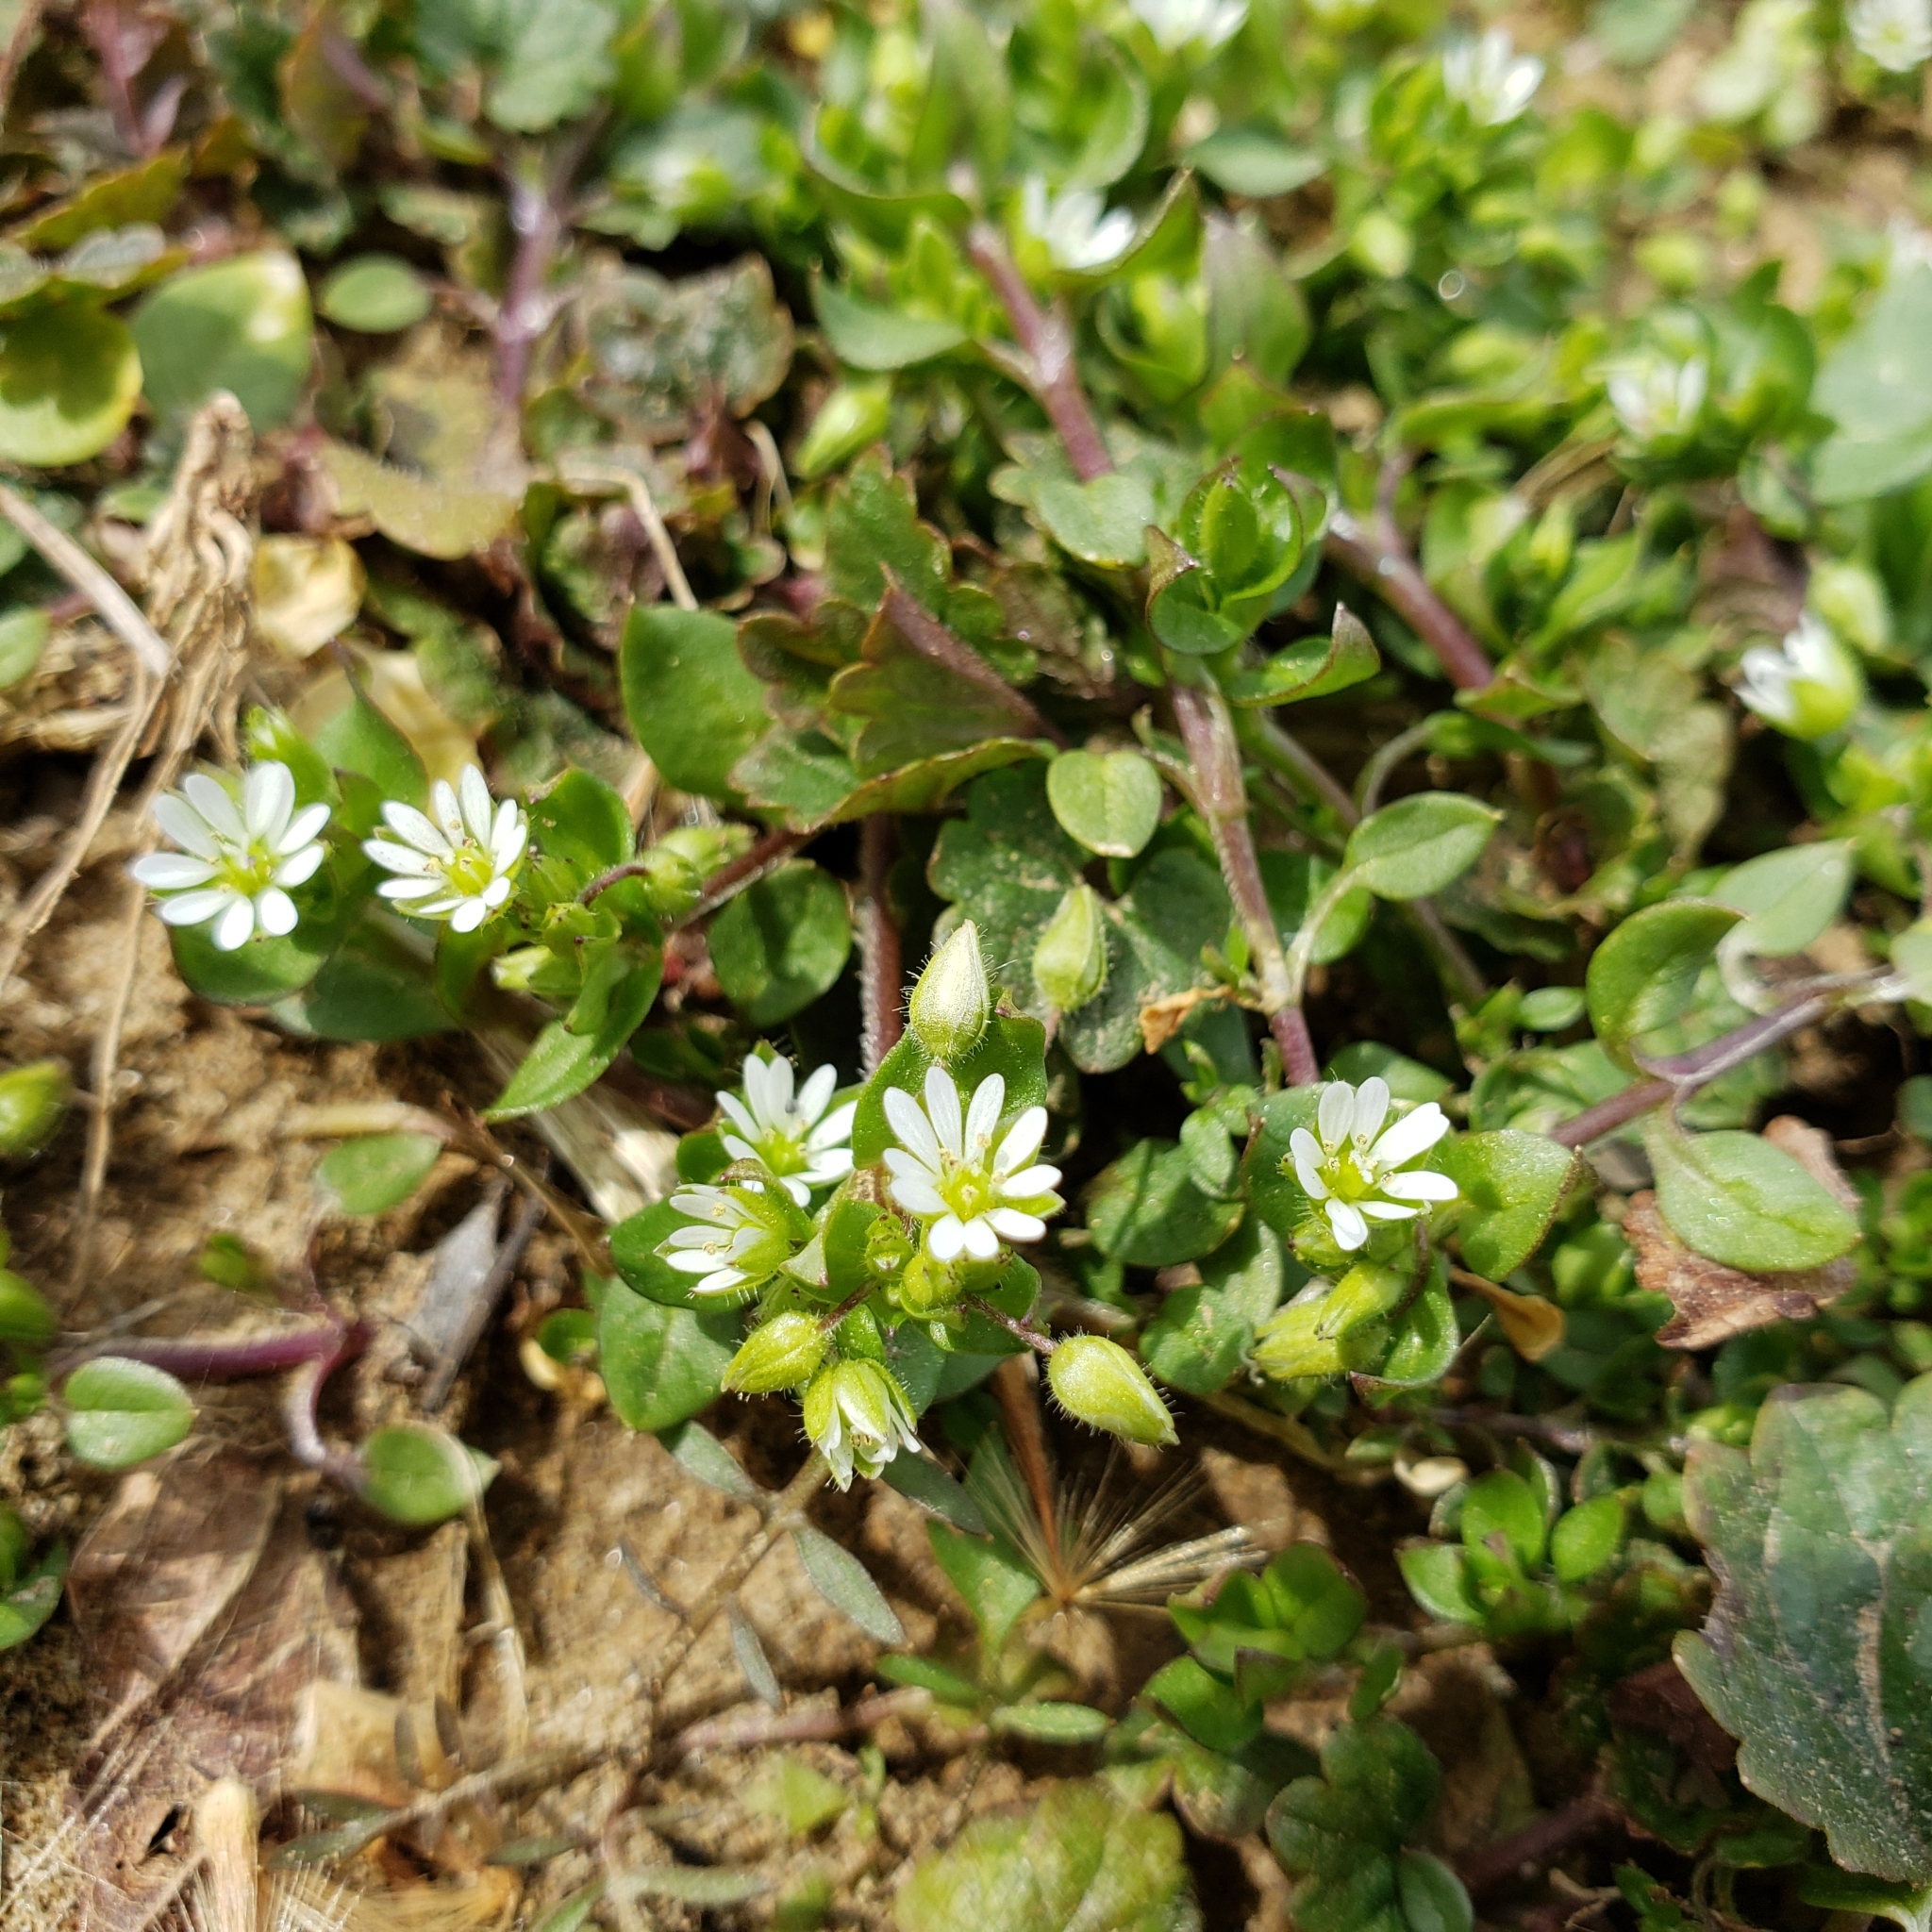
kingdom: Plantae
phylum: Tracheophyta
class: Magnoliopsida
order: Caryophyllales
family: Caryophyllaceae
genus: Stellaria
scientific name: Stellaria media
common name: Common chickweed
